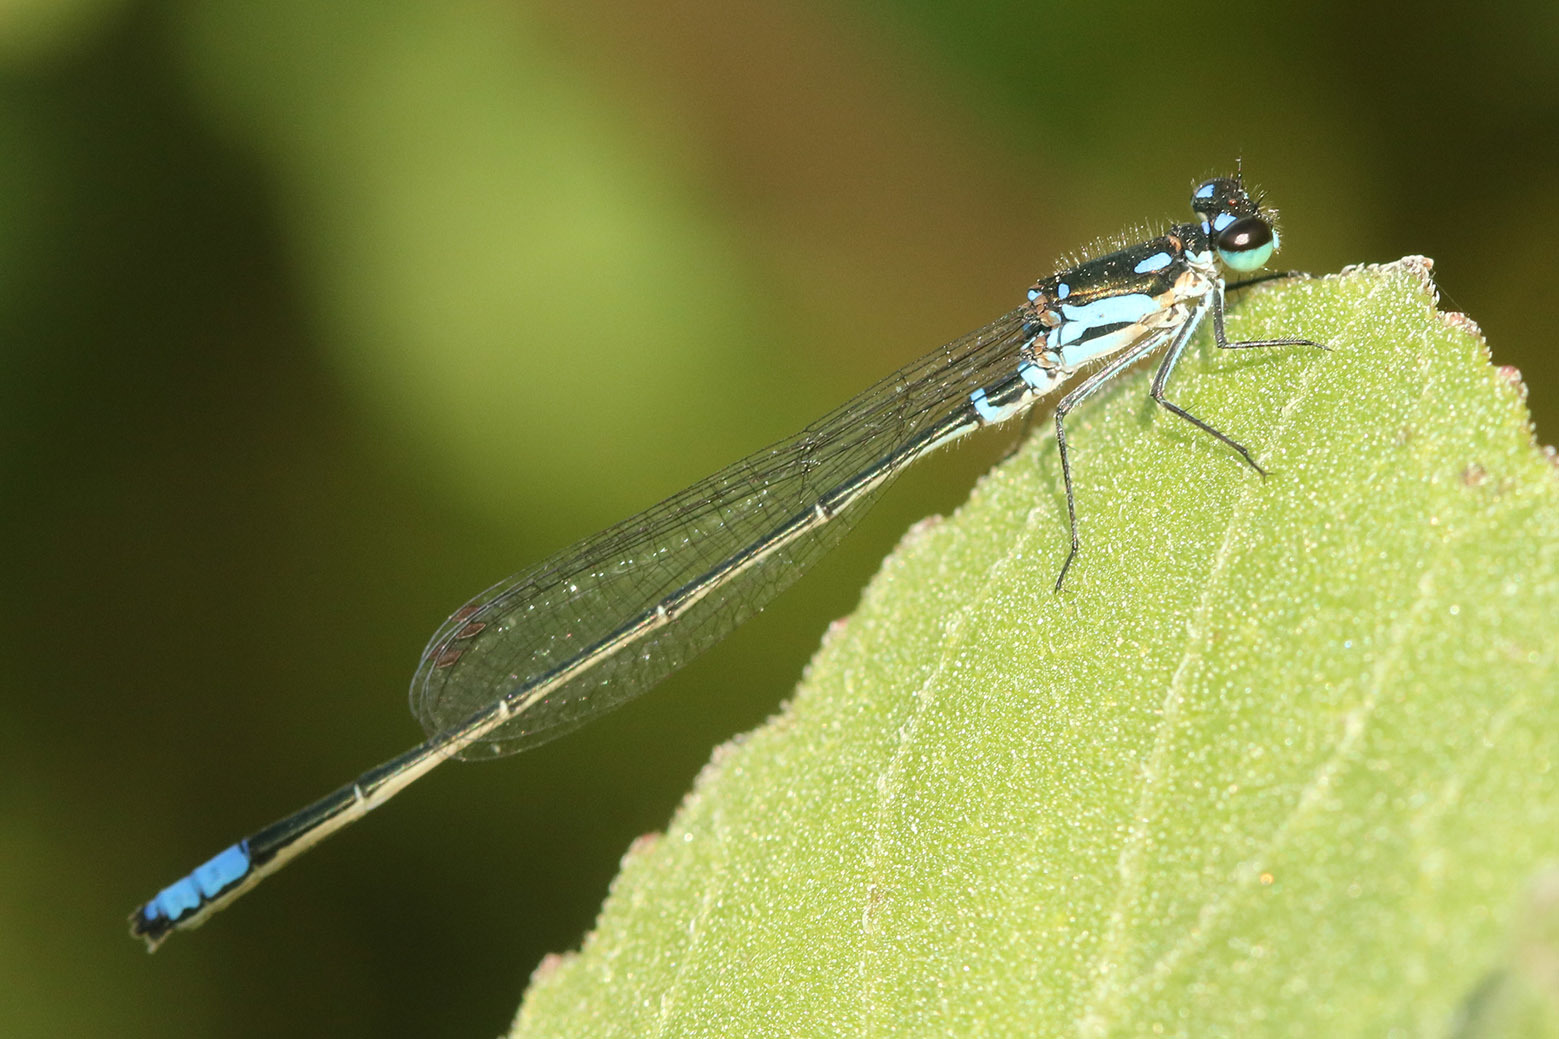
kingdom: Animalia
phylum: Arthropoda
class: Insecta
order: Odonata
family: Coenagrionidae
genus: Cyanallagma
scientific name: Cyanallagma bonariense
